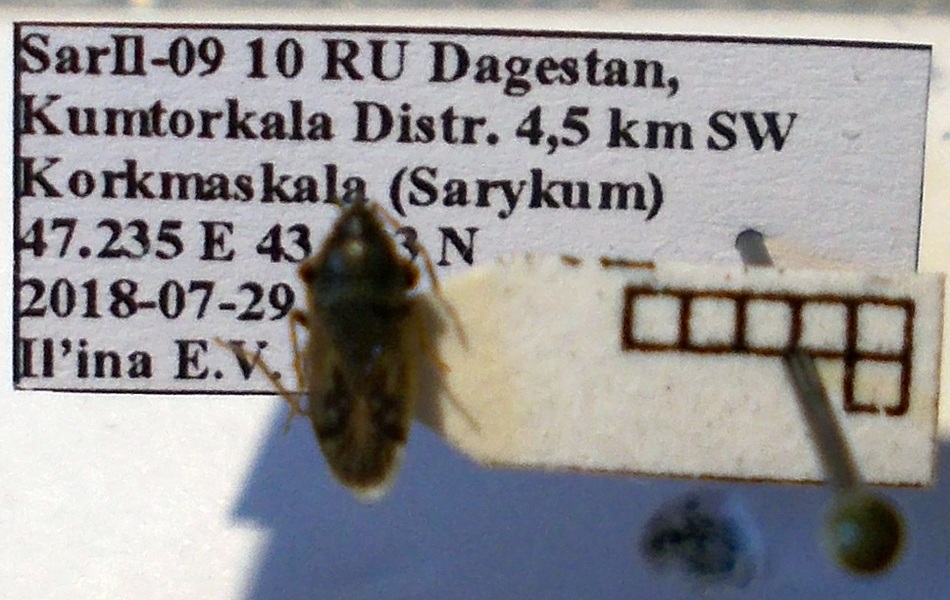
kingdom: Animalia
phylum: Arthropoda
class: Insecta
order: Hemiptera
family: Rhyparochromidae
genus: Megalonotus
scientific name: Megalonotus sabulicola
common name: Seed bug
